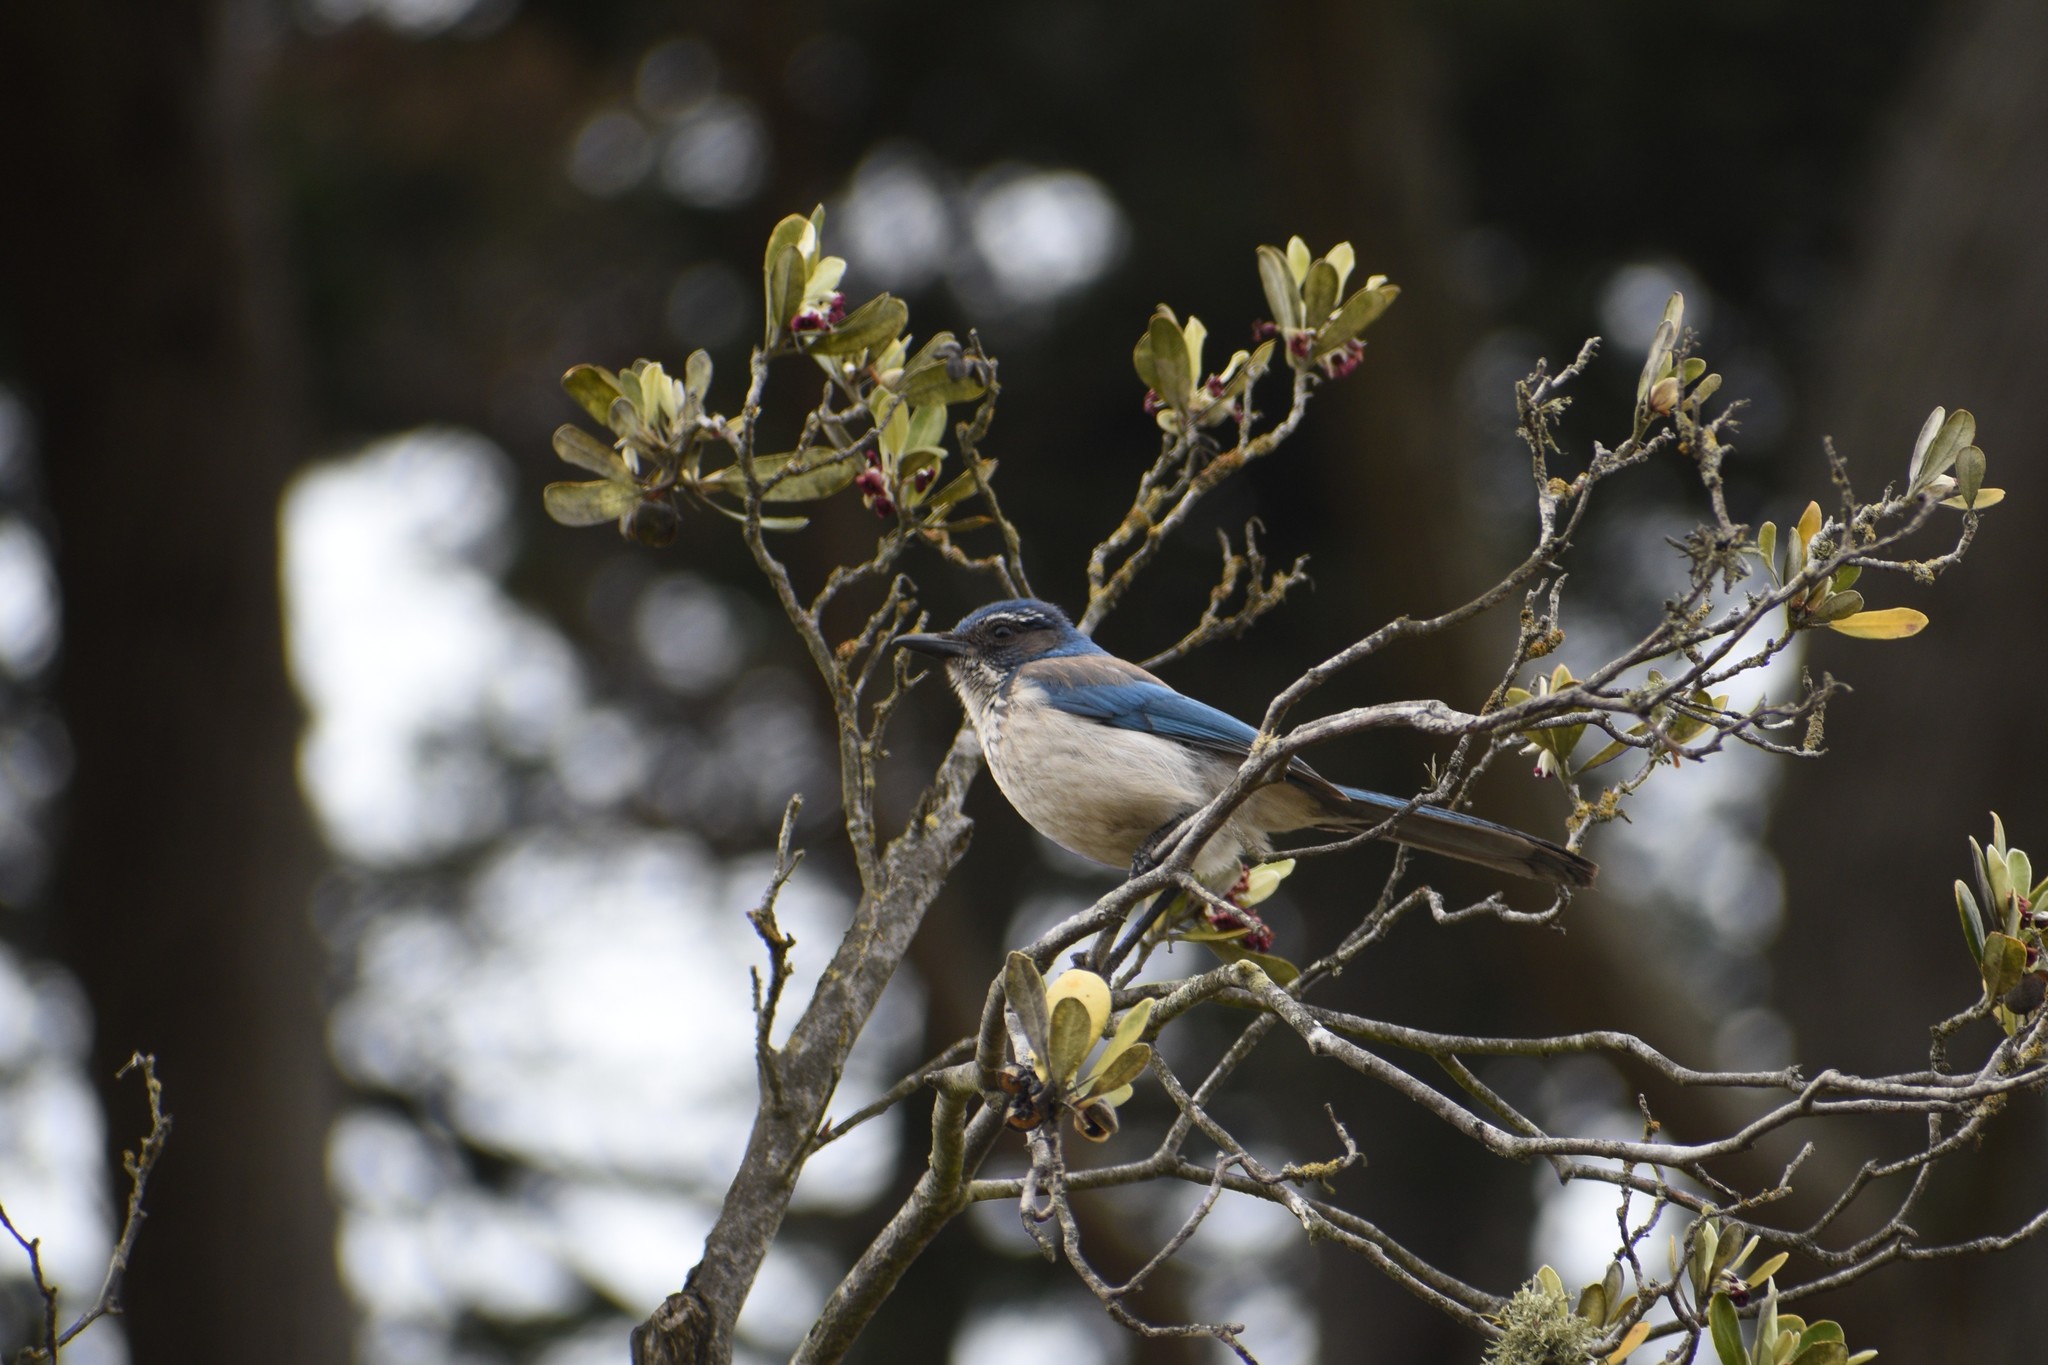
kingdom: Animalia
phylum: Chordata
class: Aves
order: Passeriformes
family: Corvidae
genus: Aphelocoma
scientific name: Aphelocoma californica
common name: California scrub-jay
